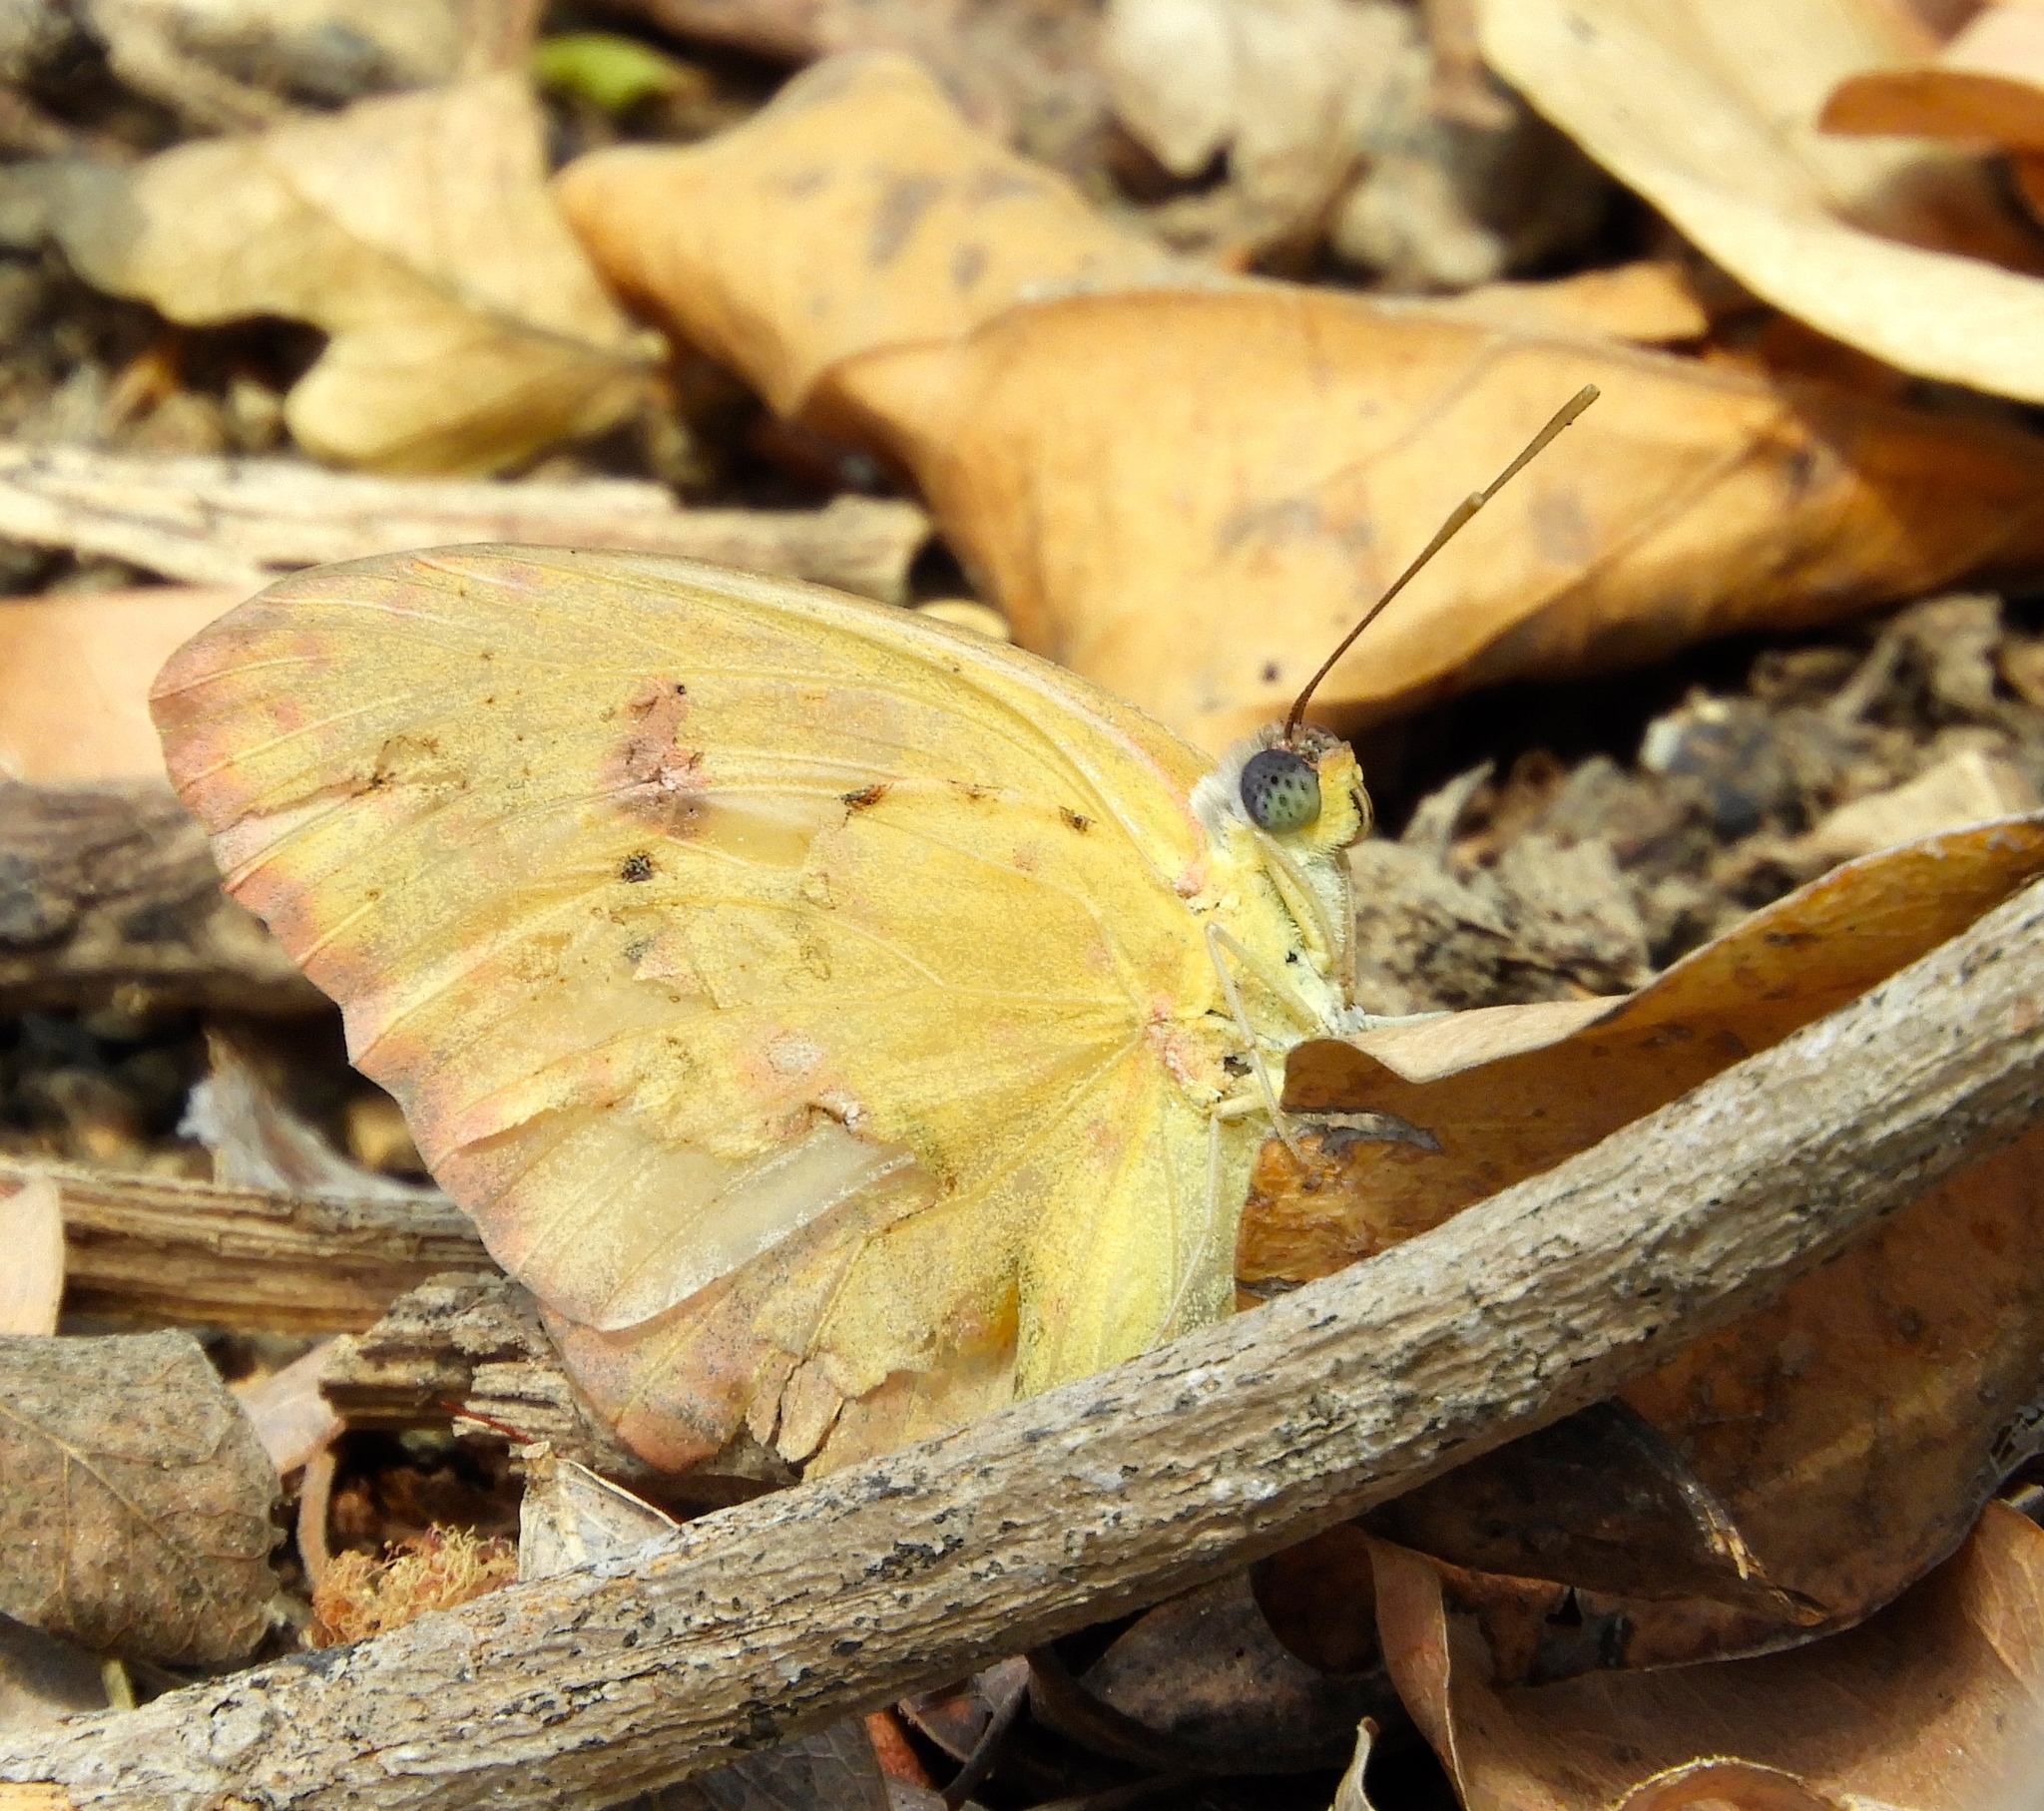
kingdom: Animalia
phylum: Arthropoda
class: Insecta
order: Lepidoptera
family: Pieridae
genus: Phoebis
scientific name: Phoebis philea
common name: Orange-barred giant sulphur
